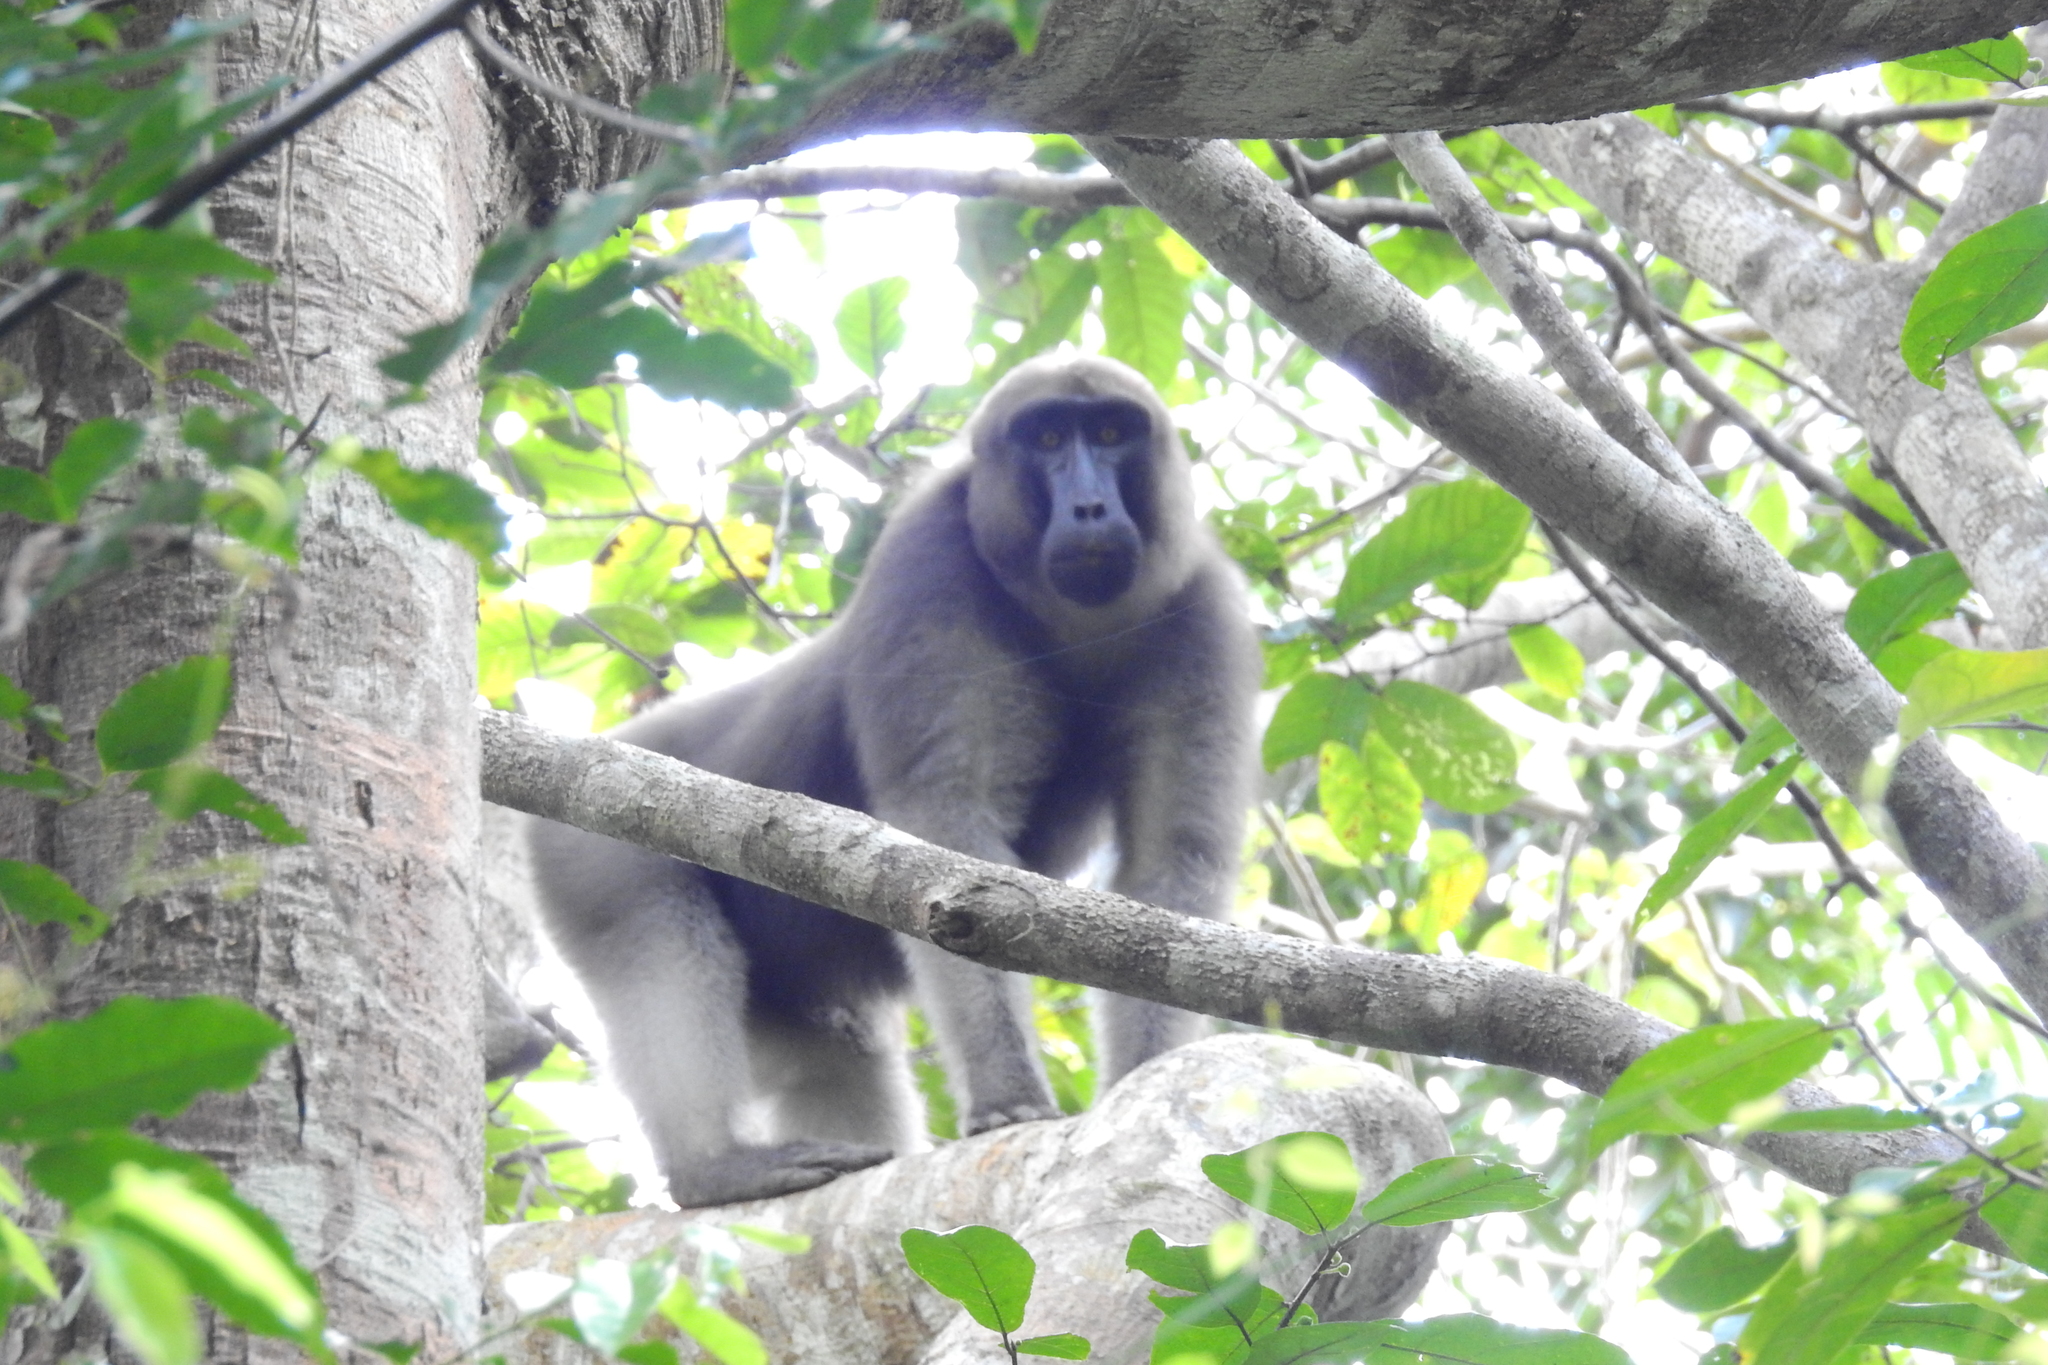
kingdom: Animalia
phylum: Chordata
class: Mammalia
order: Primates
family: Cercopithecidae
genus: Macaca
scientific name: Macaca ochreata
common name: Booted macaque
